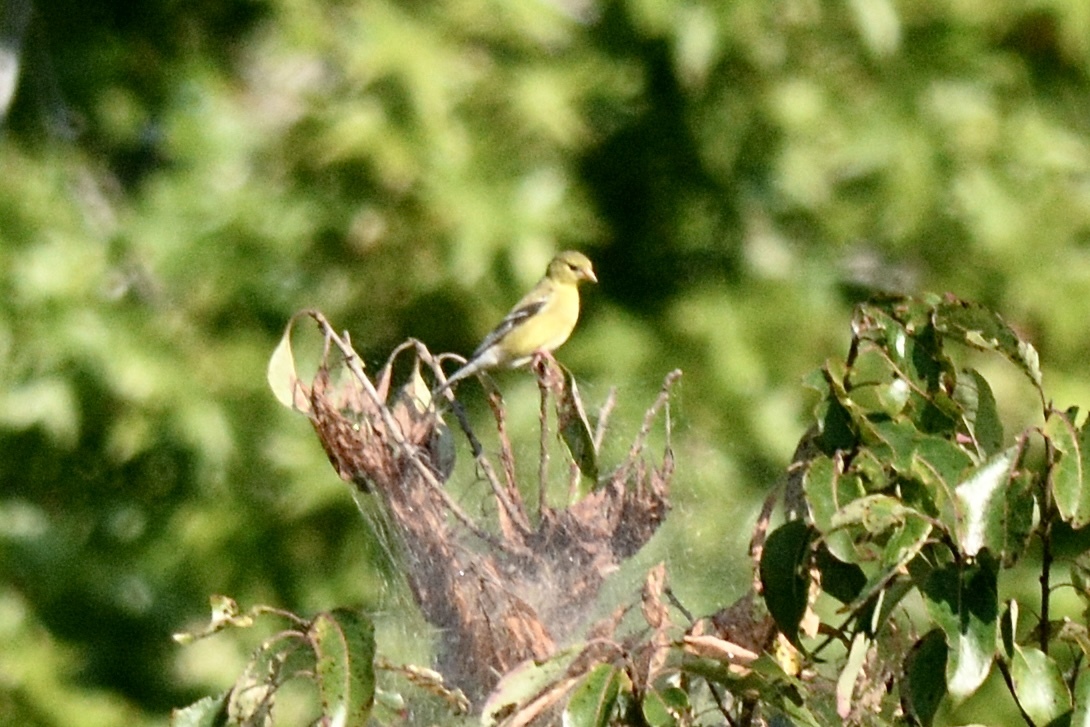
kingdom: Animalia
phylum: Chordata
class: Aves
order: Passeriformes
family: Fringillidae
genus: Spinus
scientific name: Spinus tristis
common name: American goldfinch
